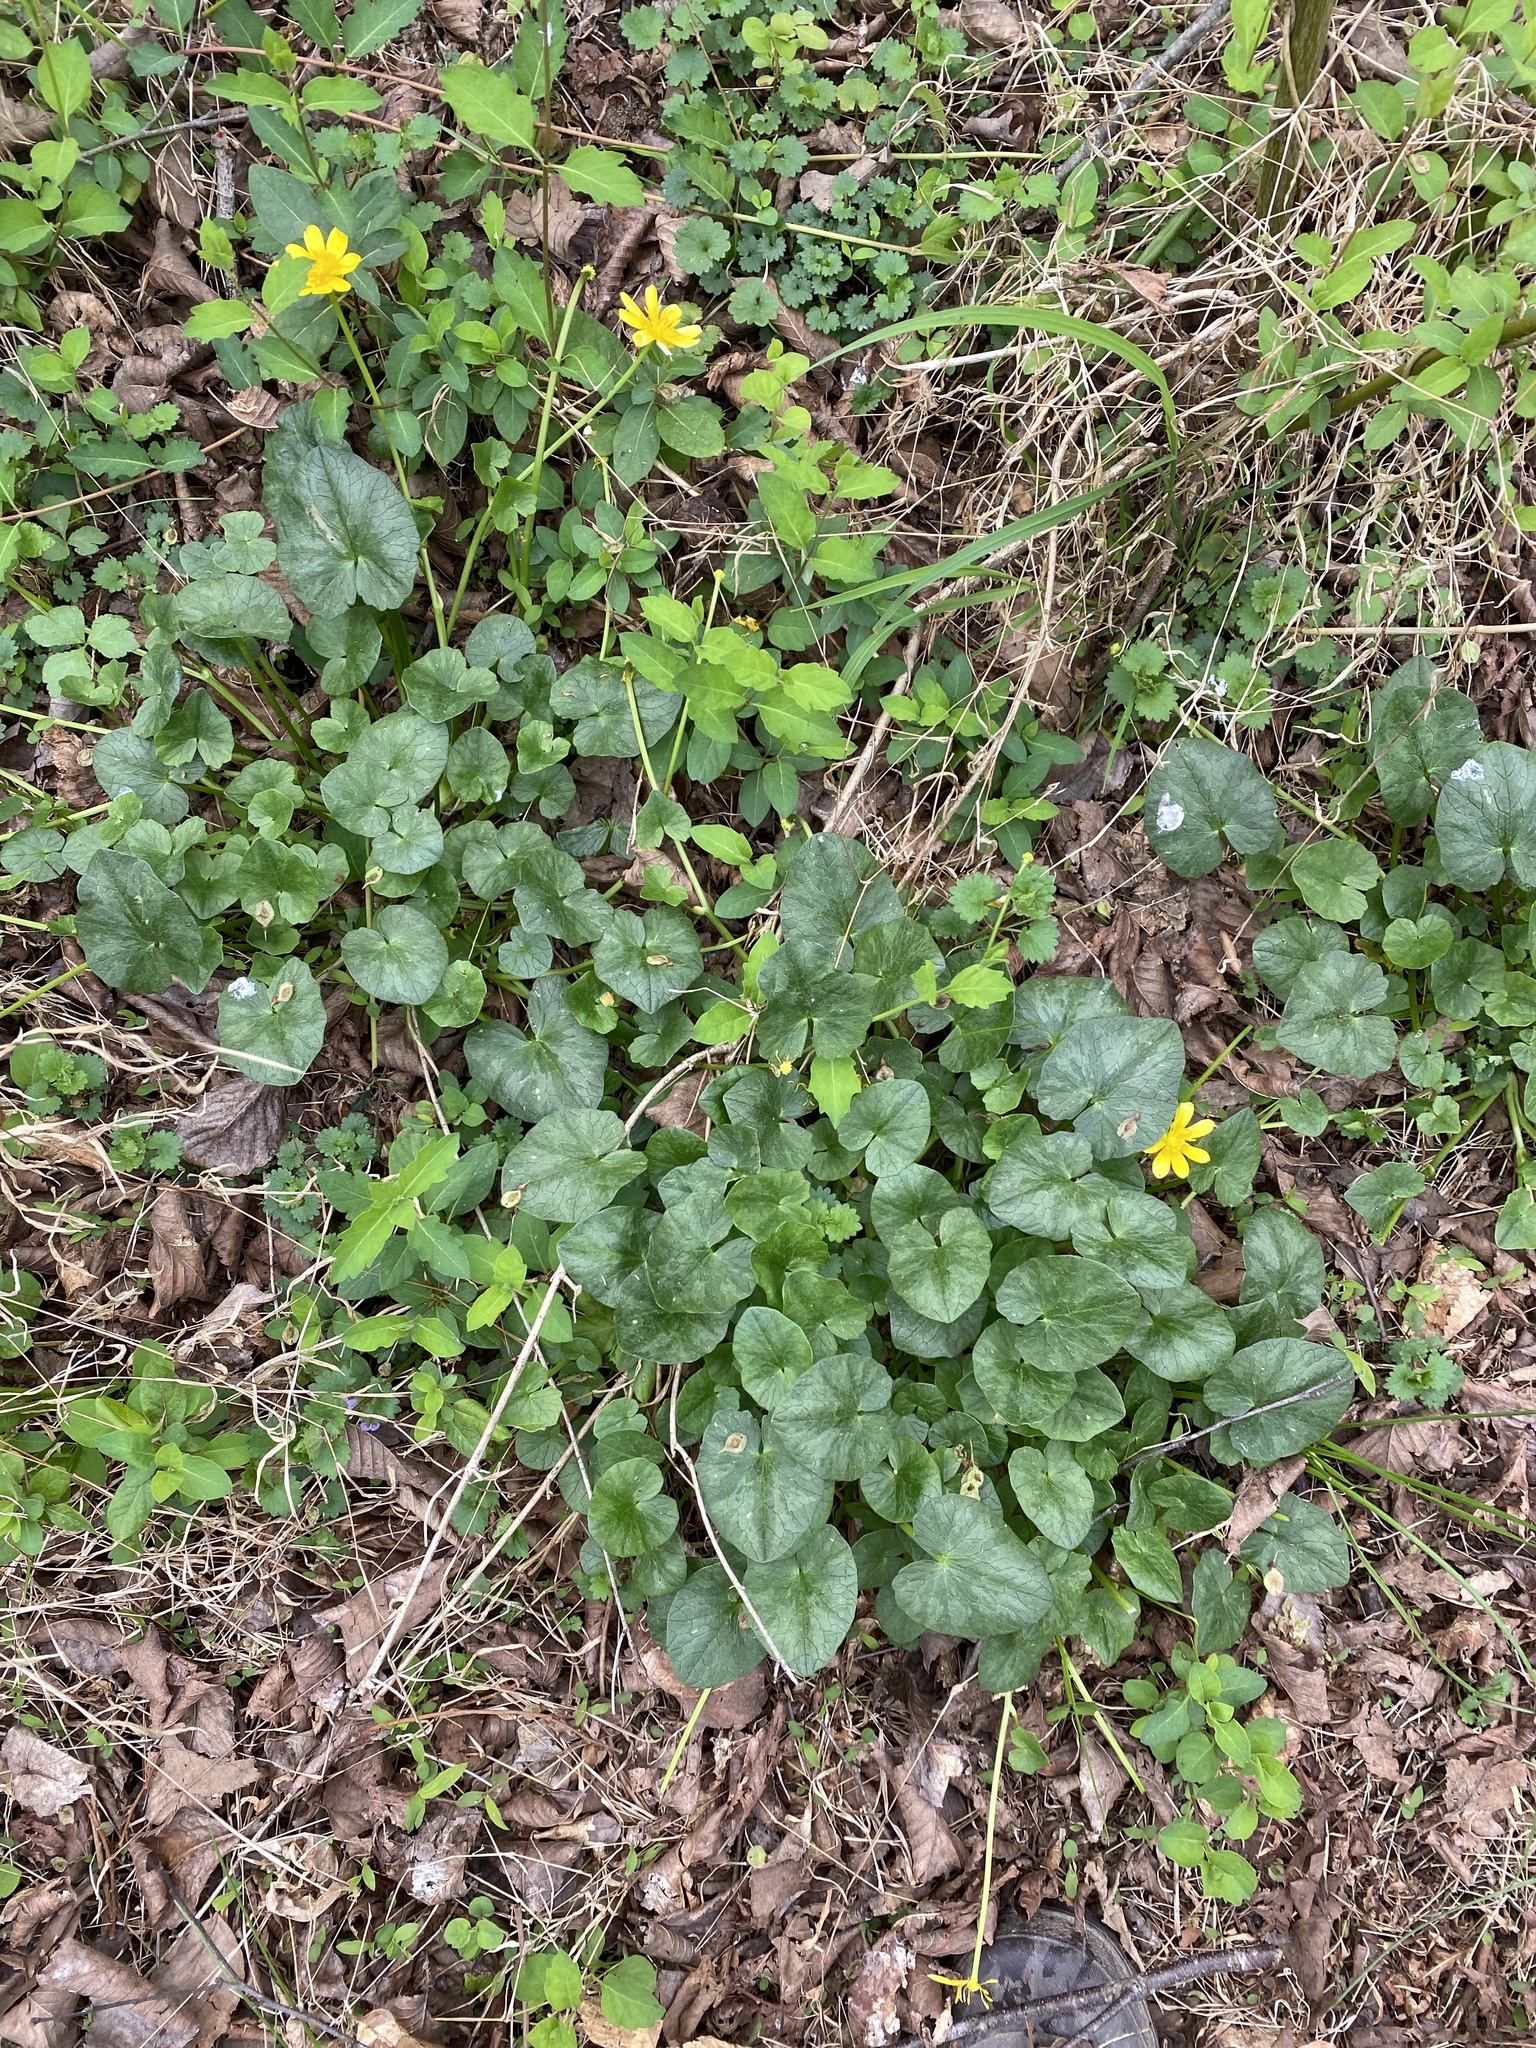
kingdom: Plantae
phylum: Tracheophyta
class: Magnoliopsida
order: Ranunculales
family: Ranunculaceae
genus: Ficaria
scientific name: Ficaria verna
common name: Lesser celandine
